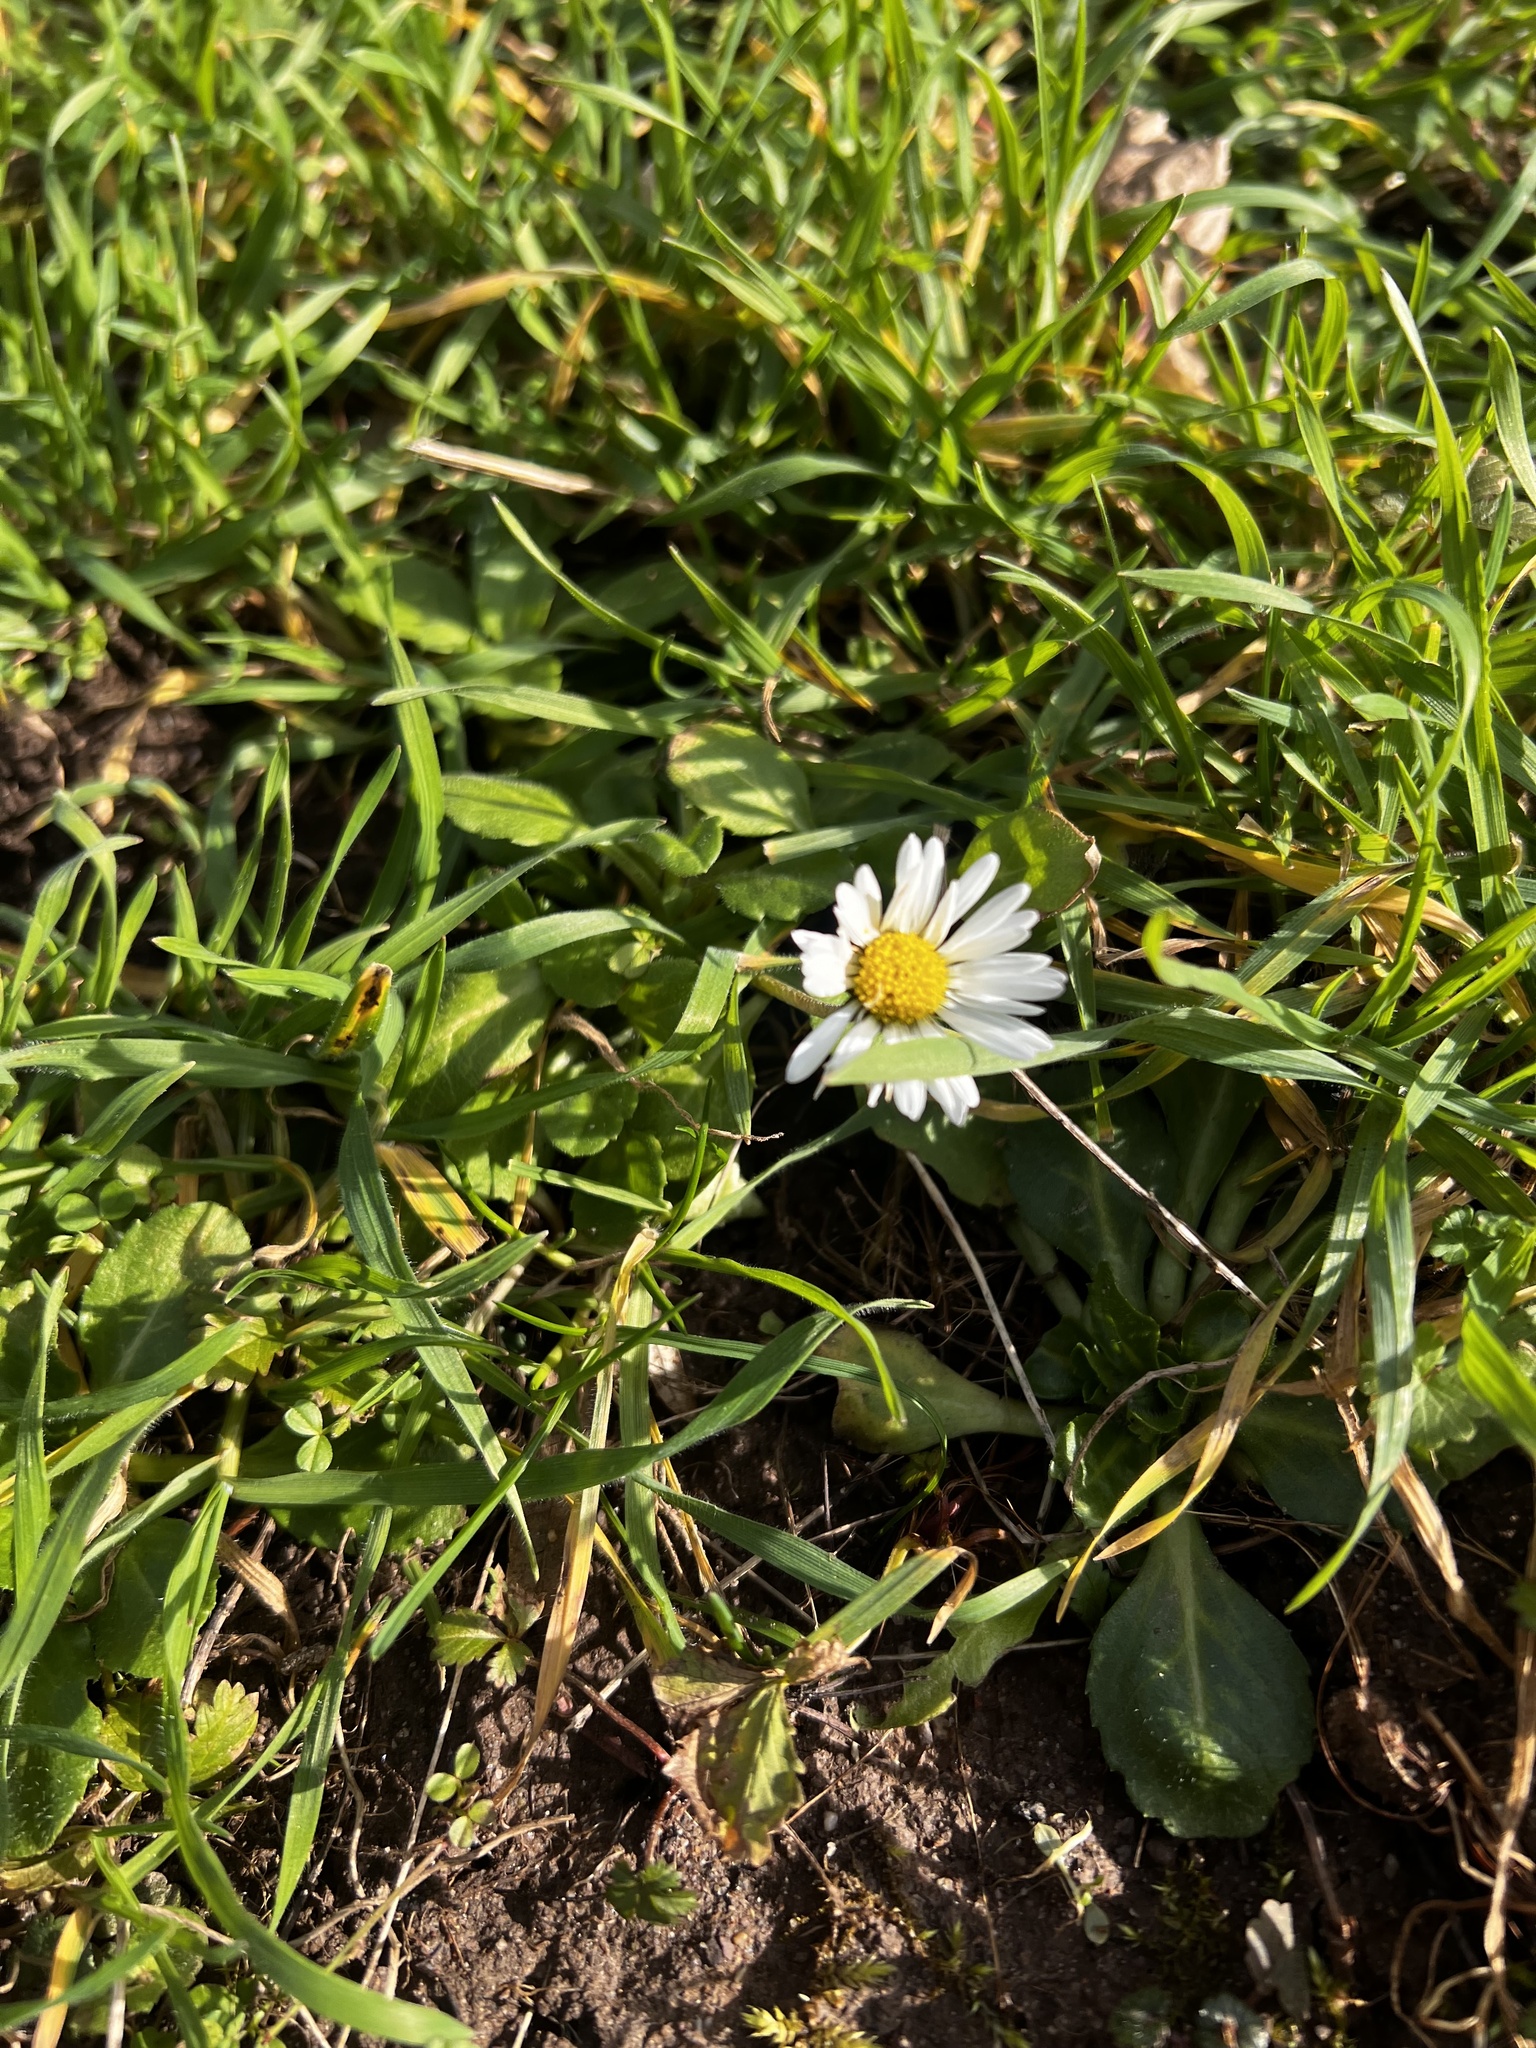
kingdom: Plantae
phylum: Tracheophyta
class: Magnoliopsida
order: Asterales
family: Asteraceae
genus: Bellis
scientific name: Bellis perennis
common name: Lawndaisy
